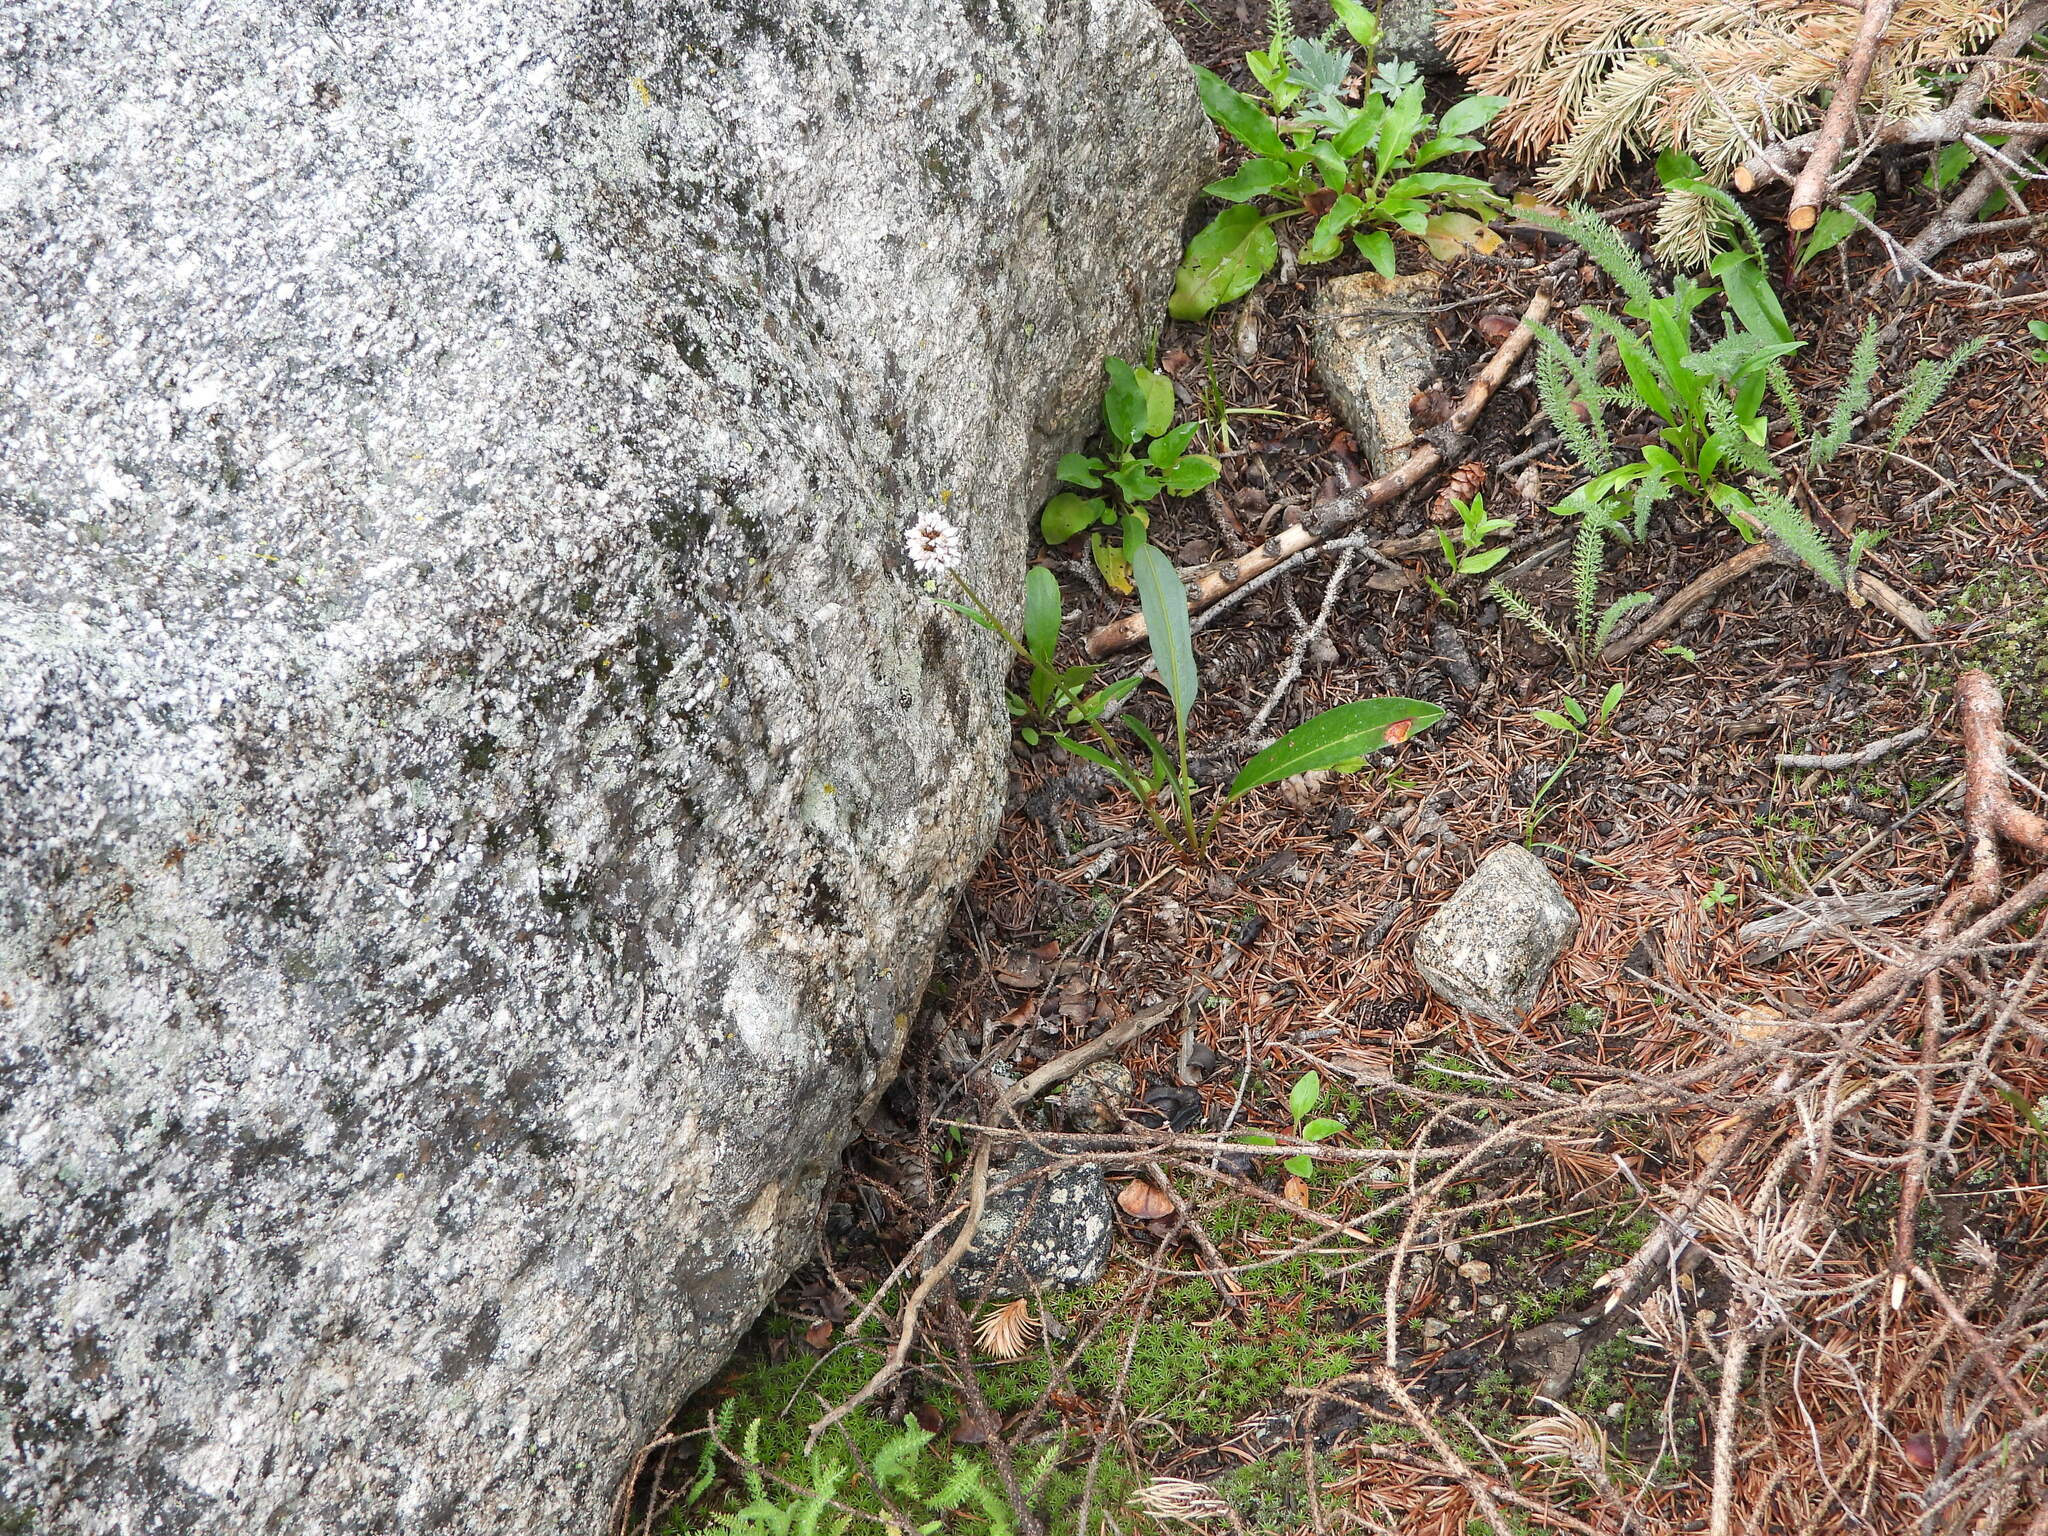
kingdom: Plantae
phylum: Tracheophyta
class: Magnoliopsida
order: Caryophyllales
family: Polygonaceae
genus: Bistorta
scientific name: Bistorta bistortoides
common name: American bistort
